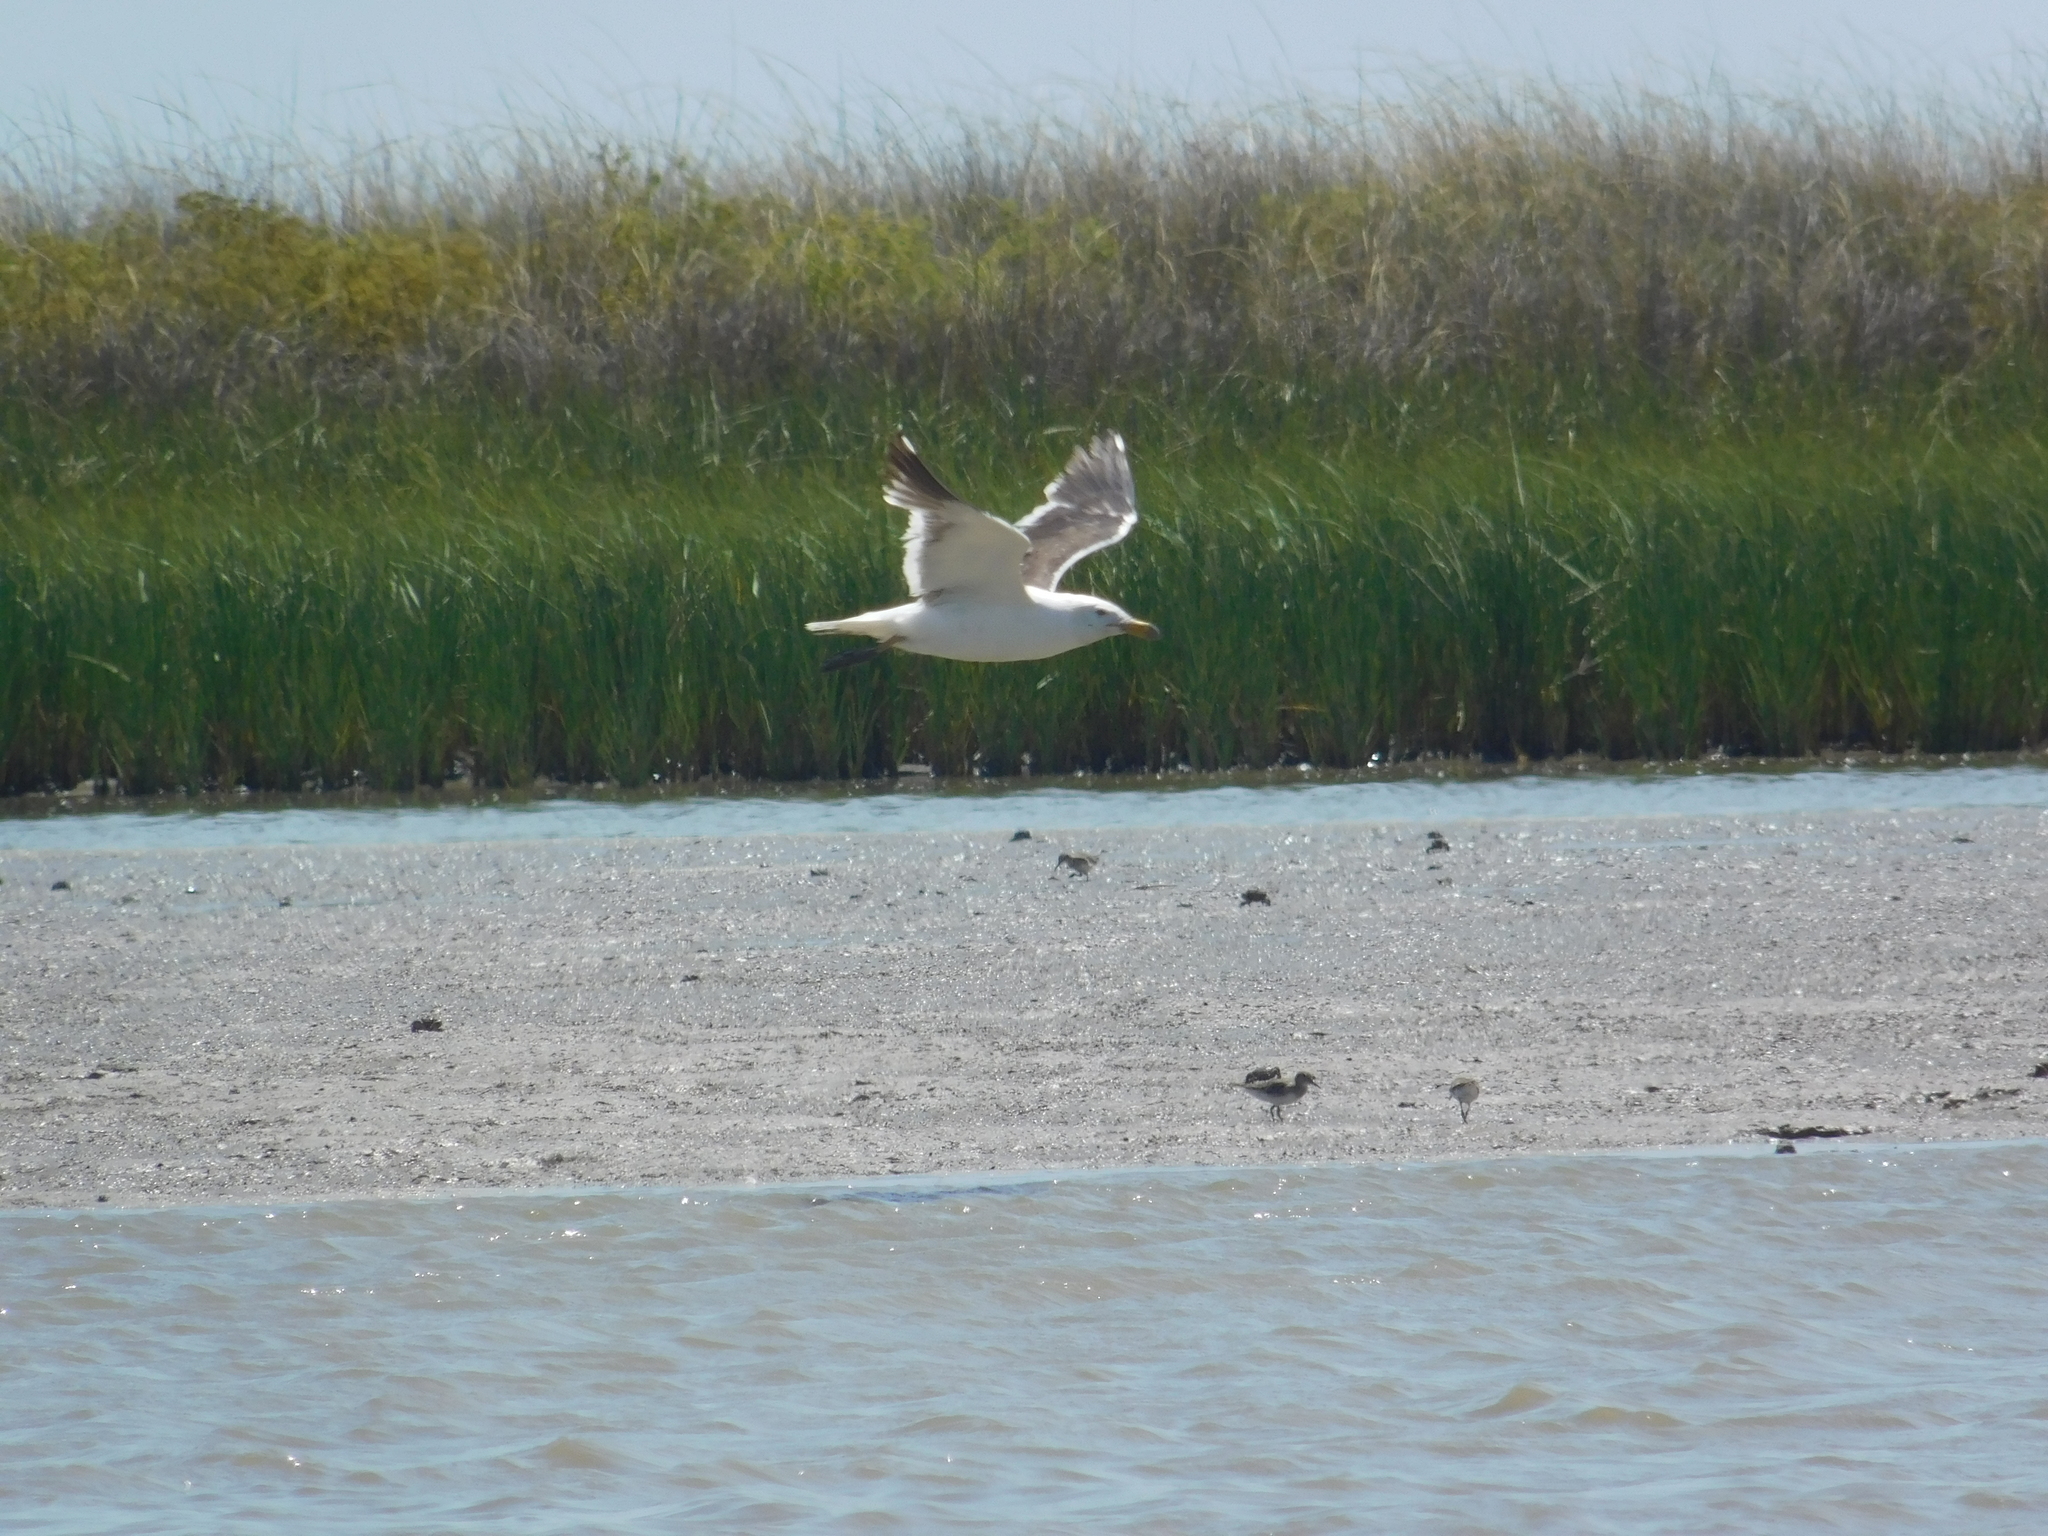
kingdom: Animalia
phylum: Chordata
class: Aves
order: Charadriiformes
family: Laridae
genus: Larus
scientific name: Larus dominicanus
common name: Kelp gull
